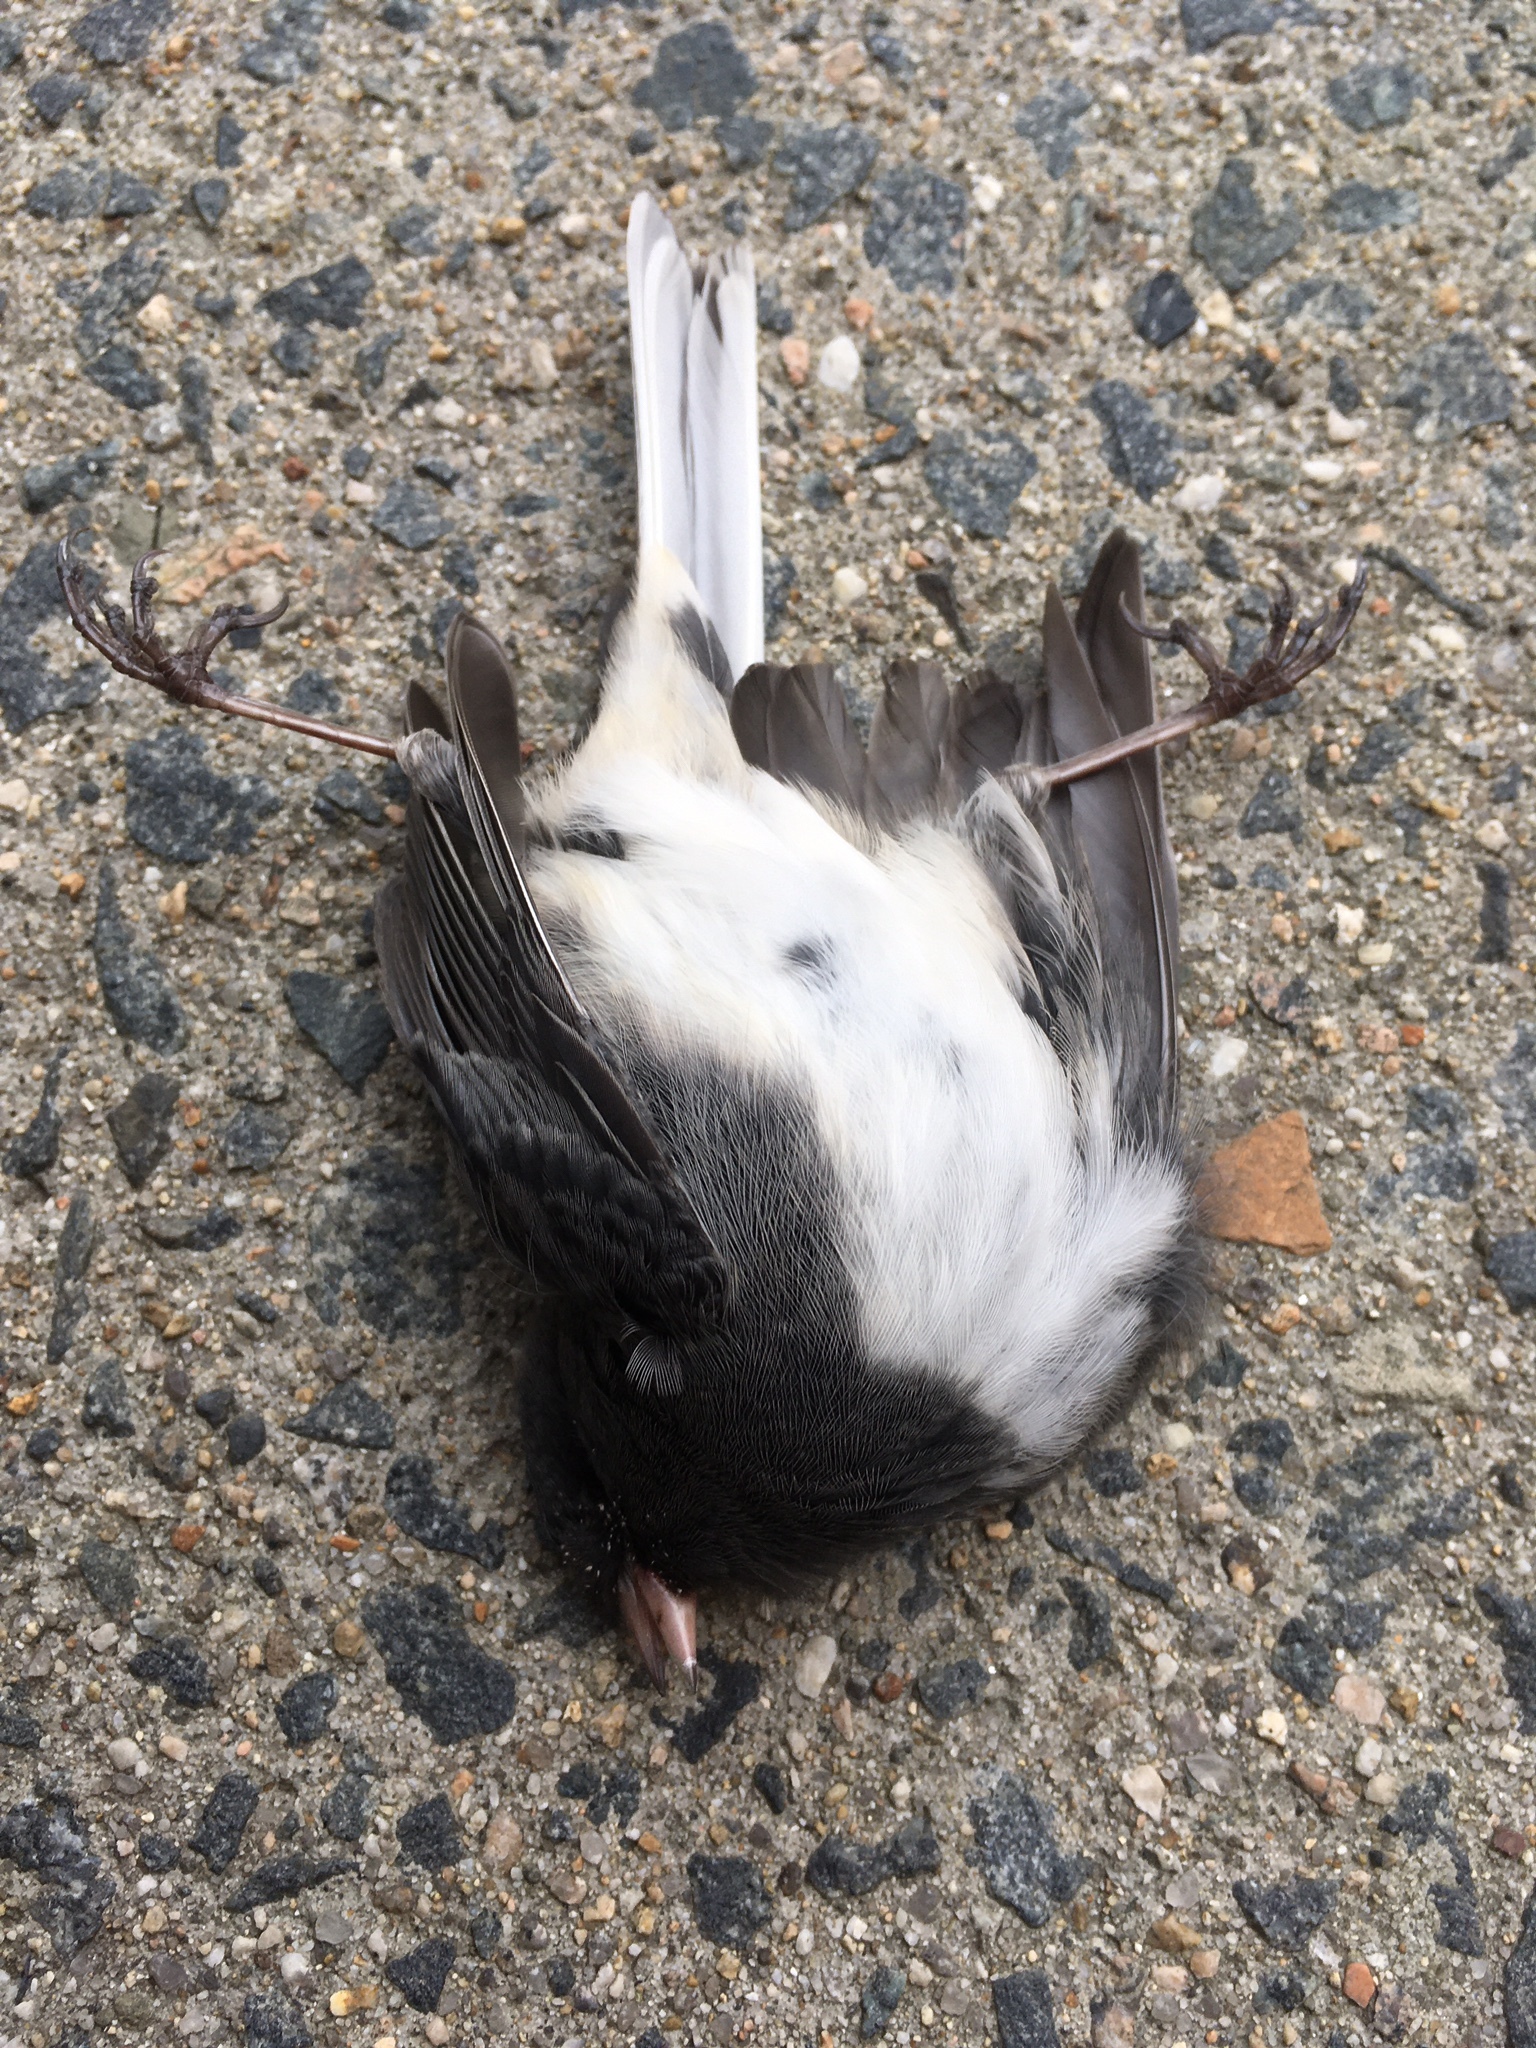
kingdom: Animalia
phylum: Chordata
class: Aves
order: Passeriformes
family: Passerellidae
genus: Junco
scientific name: Junco hyemalis
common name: Dark-eyed junco
